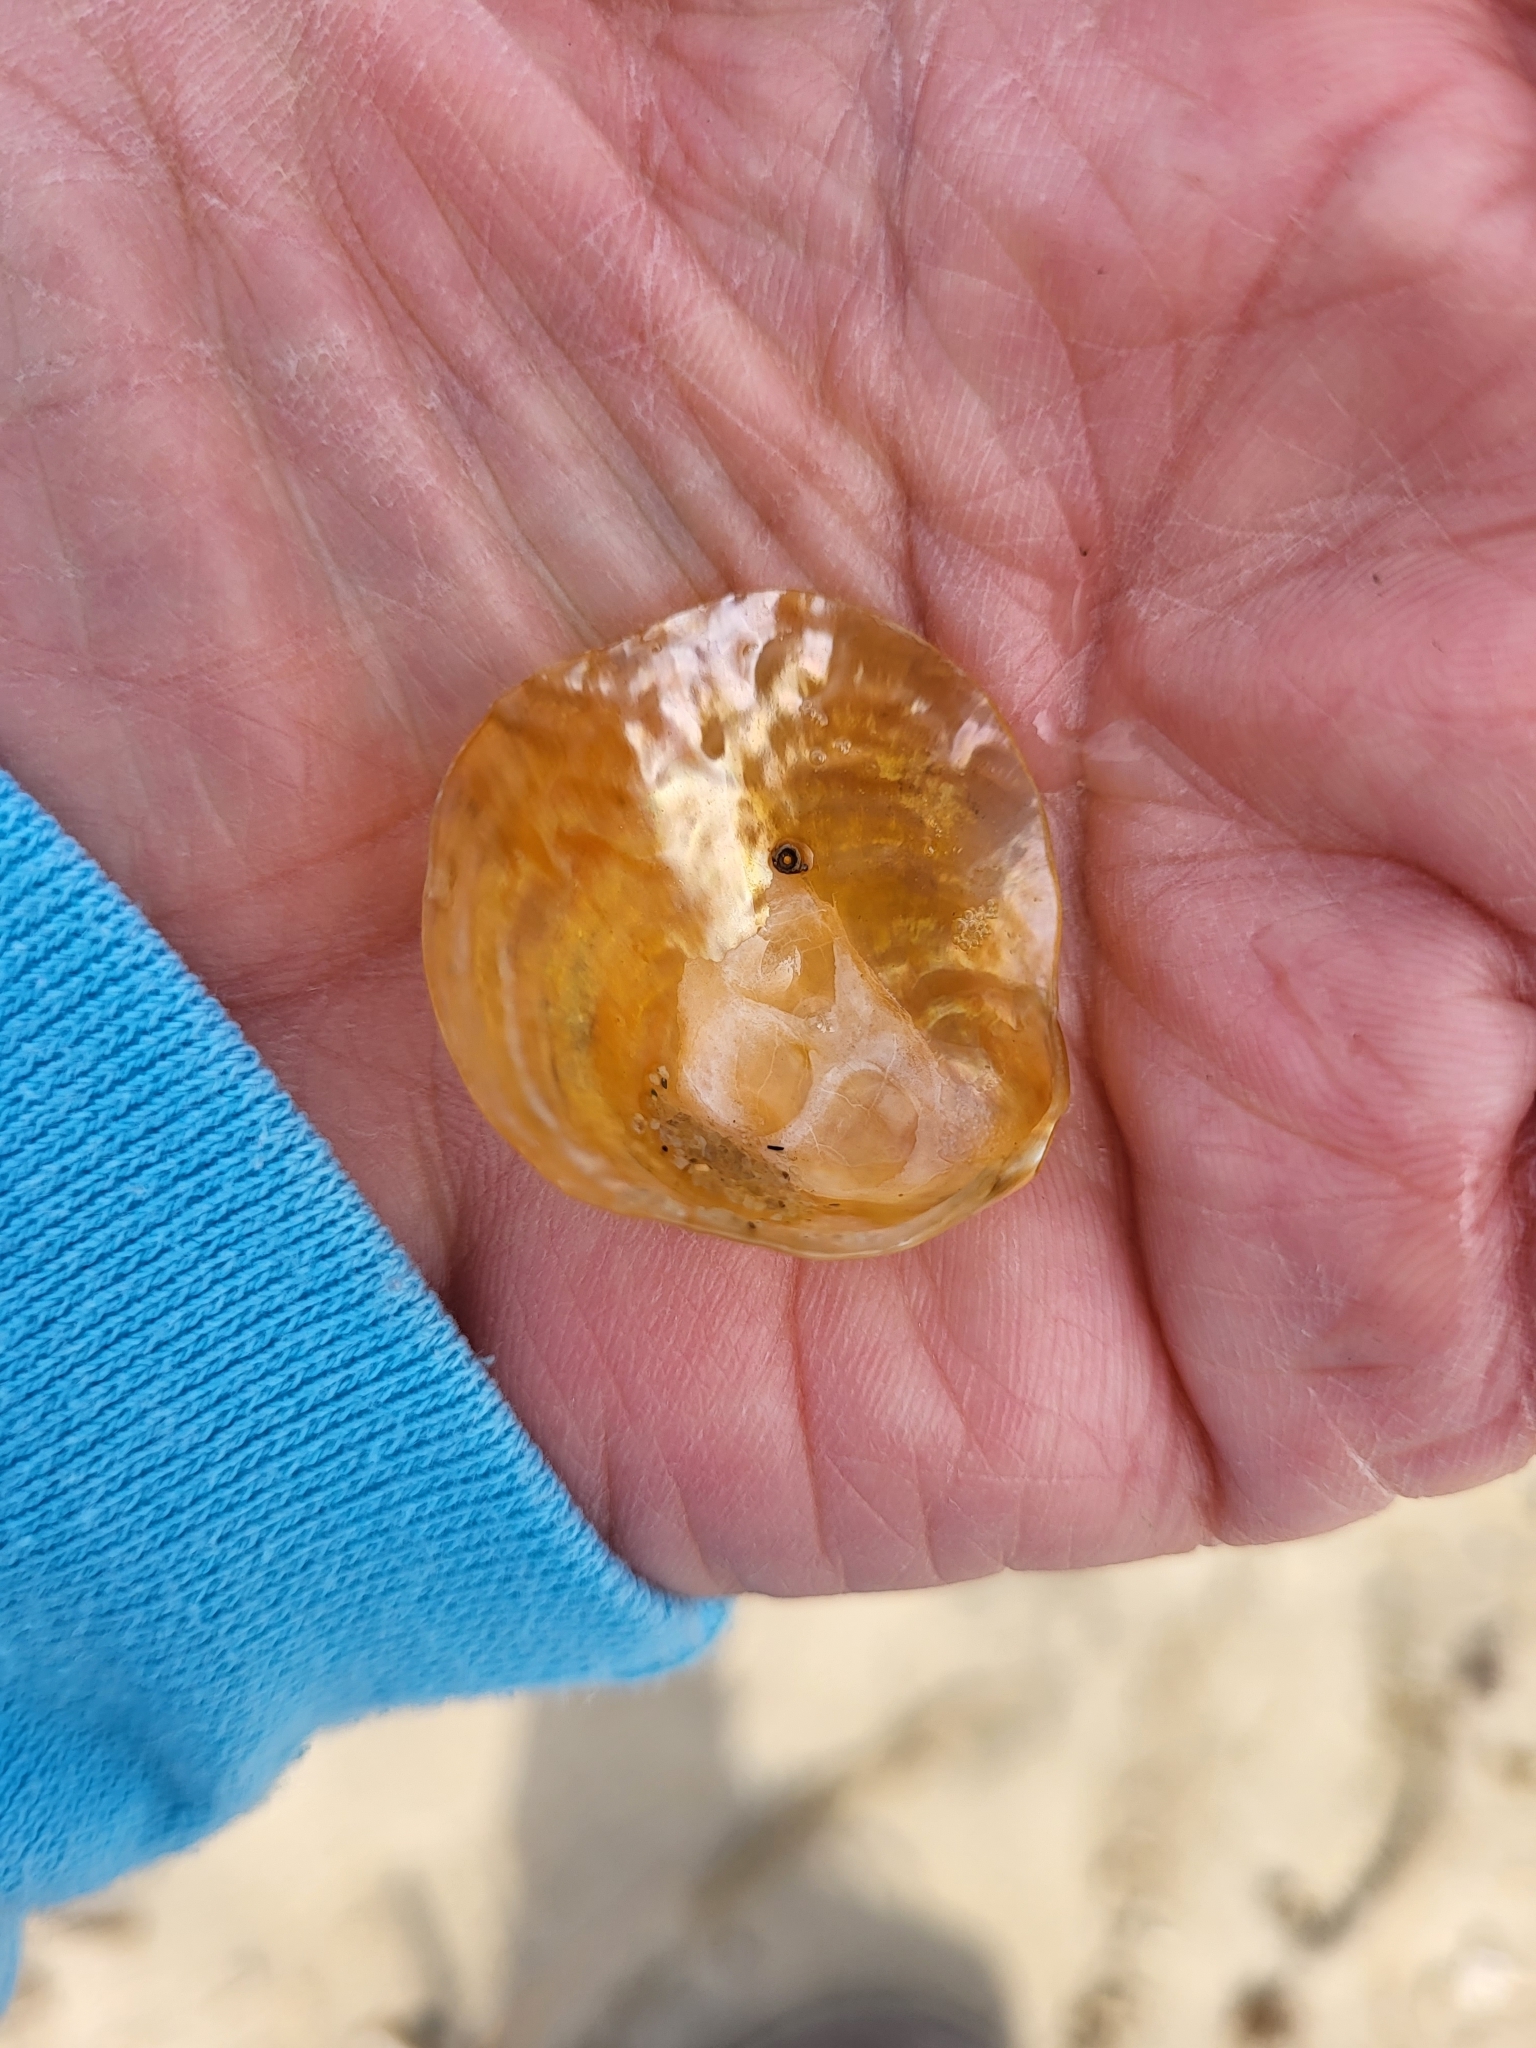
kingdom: Animalia
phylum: Mollusca
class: Bivalvia
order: Pectinida
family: Anomiidae
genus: Anomia
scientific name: Anomia simplex
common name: Common jingle shell
